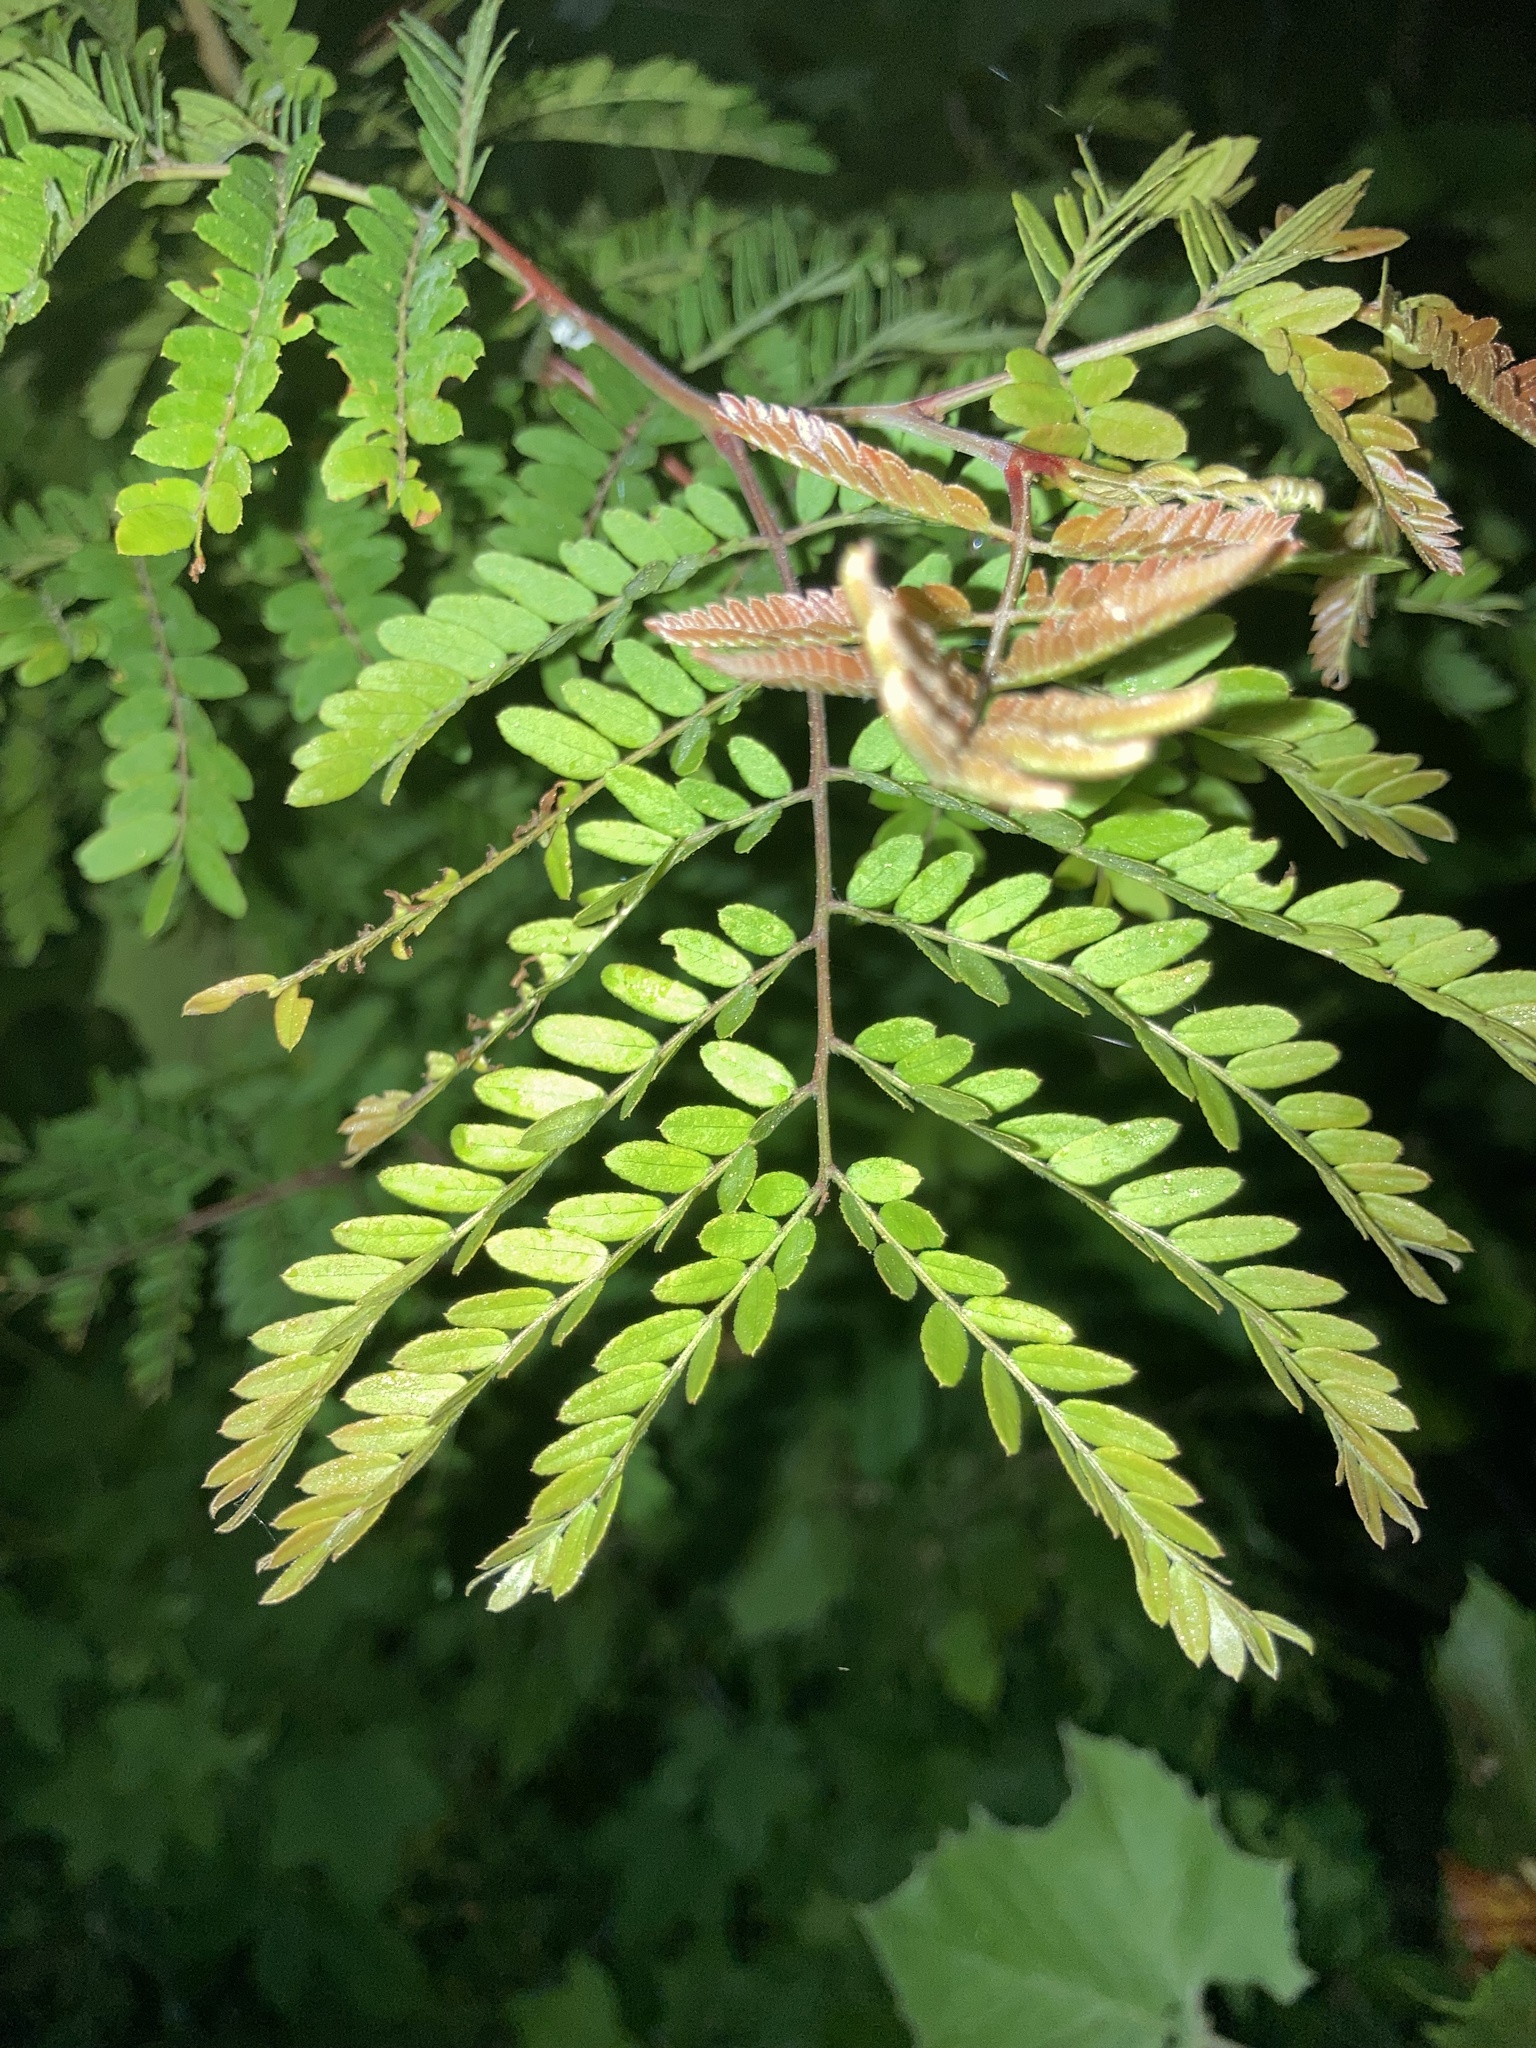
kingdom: Plantae
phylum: Tracheophyta
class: Magnoliopsida
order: Fabales
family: Fabaceae
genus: Gleditsia
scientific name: Gleditsia triacanthos
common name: Common honeylocust
